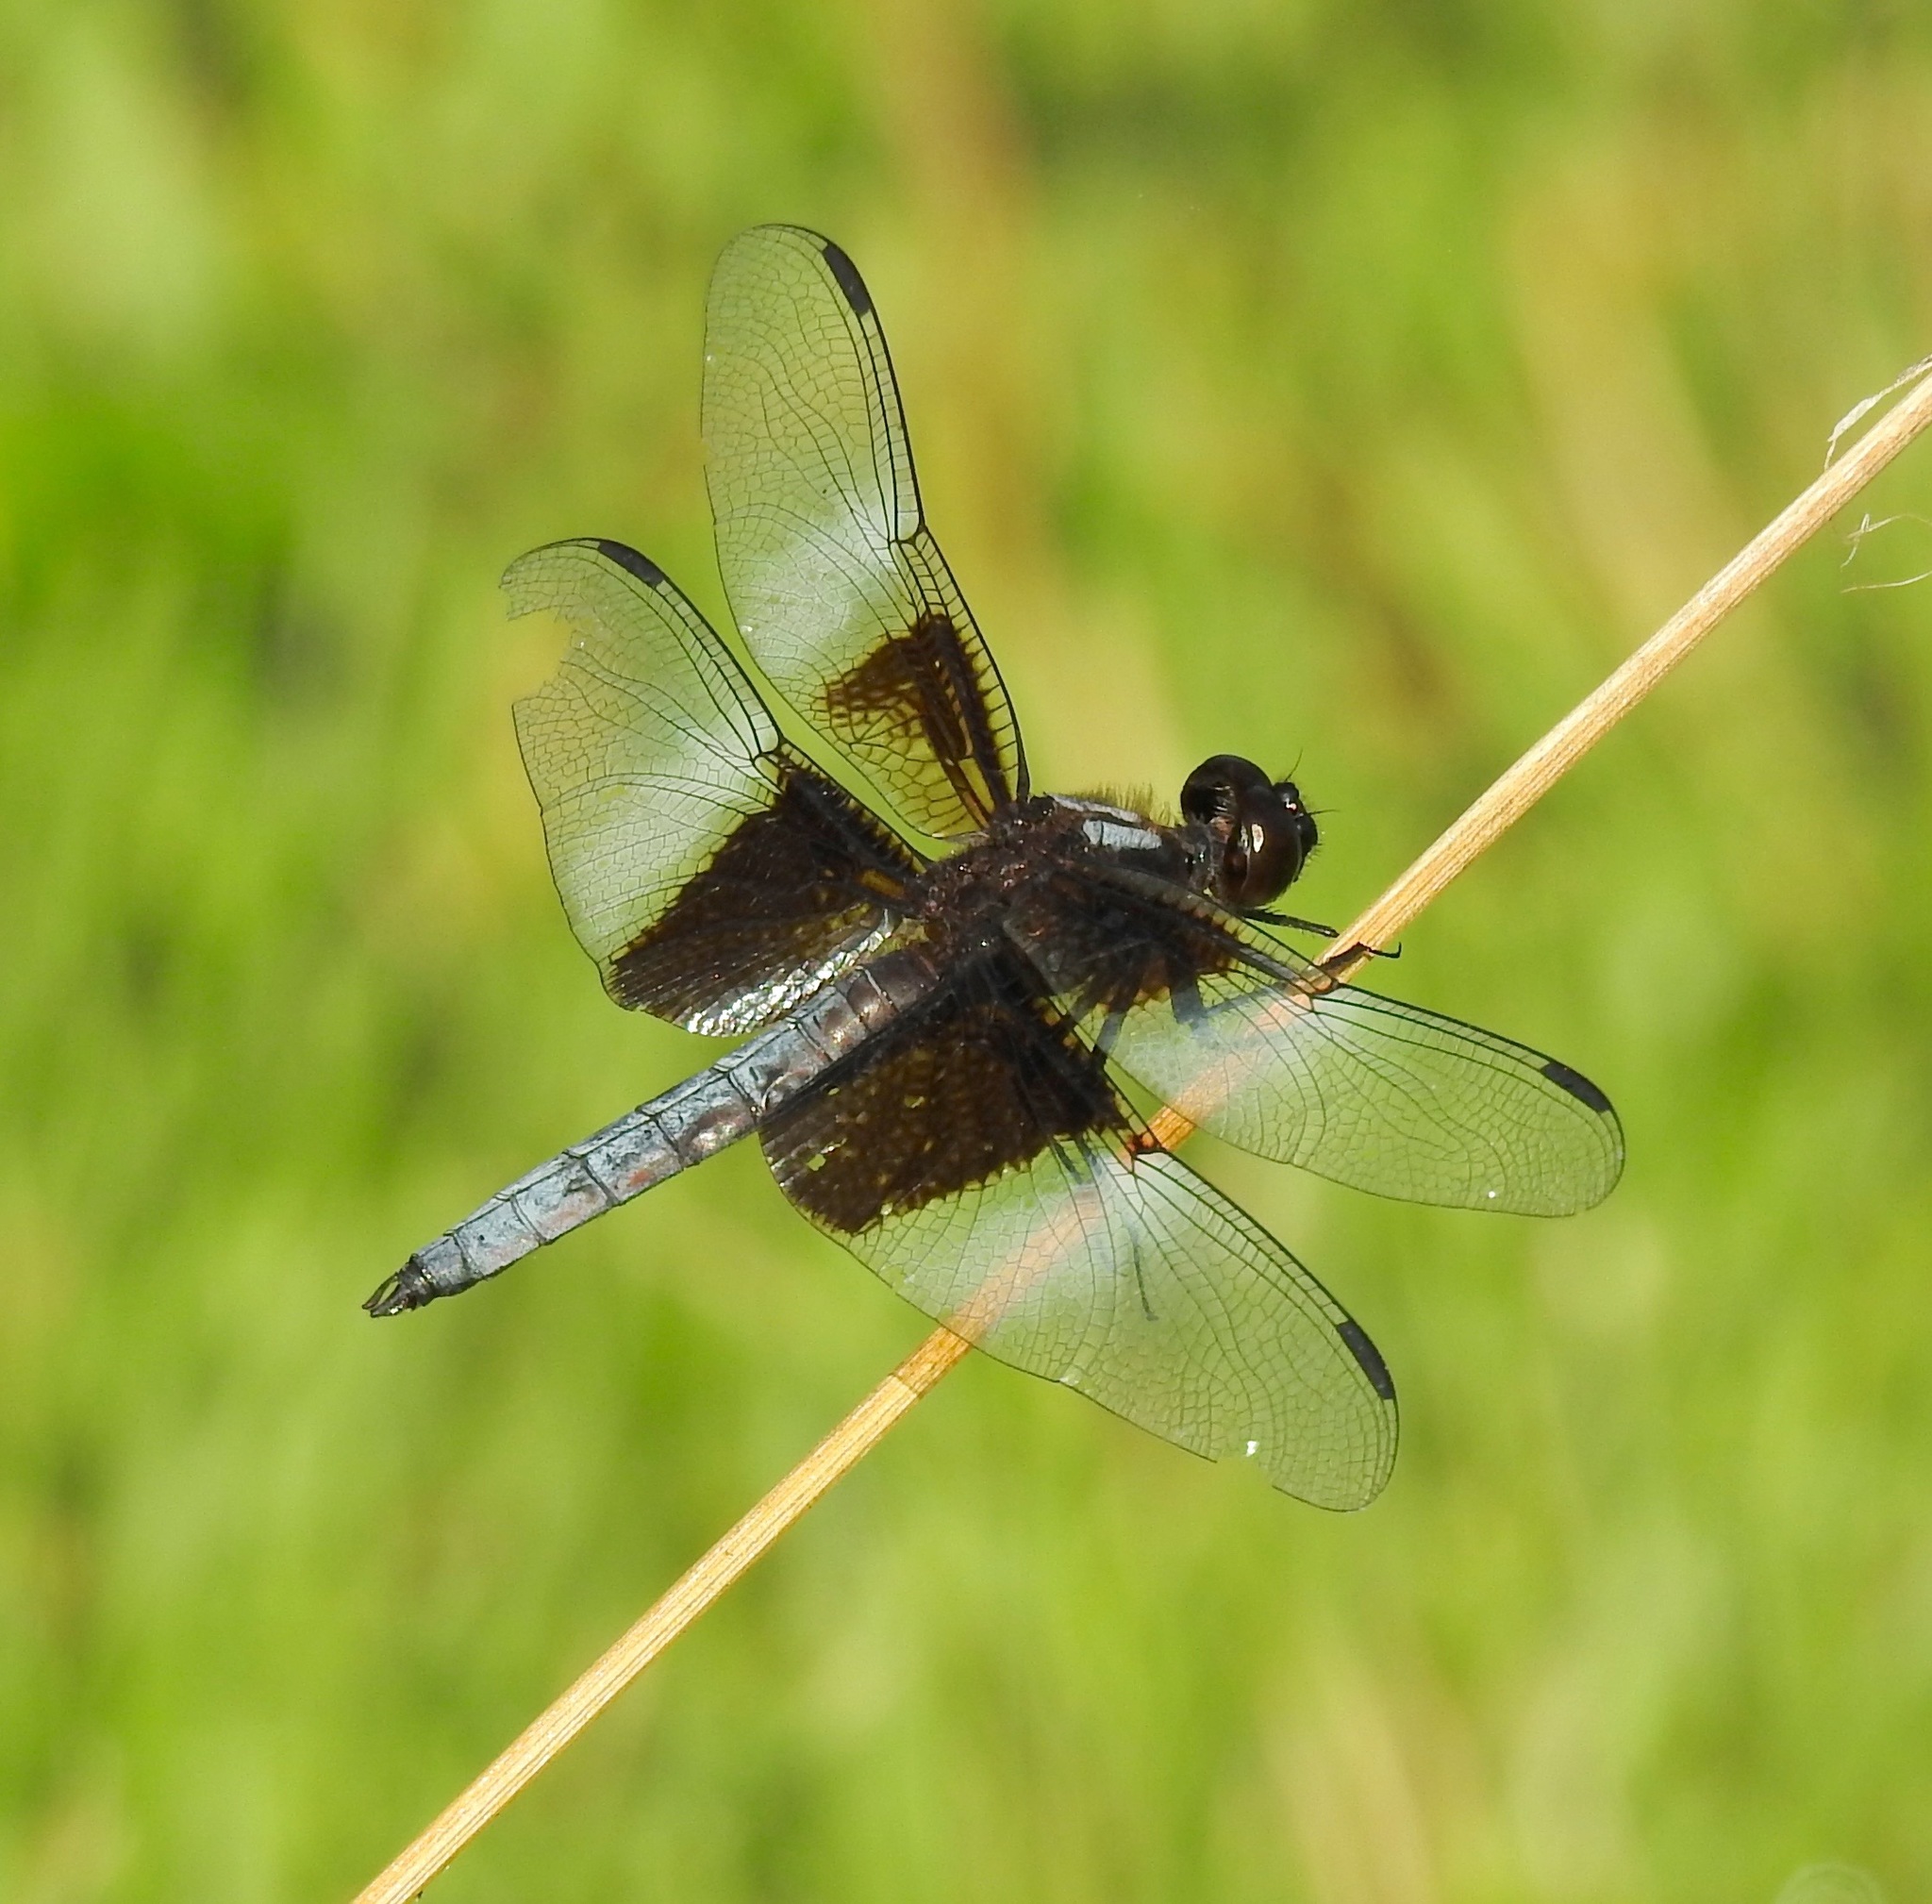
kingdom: Animalia
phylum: Arthropoda
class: Insecta
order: Odonata
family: Libellulidae
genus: Libellula
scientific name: Libellula luctuosa
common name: Widow skimmer
